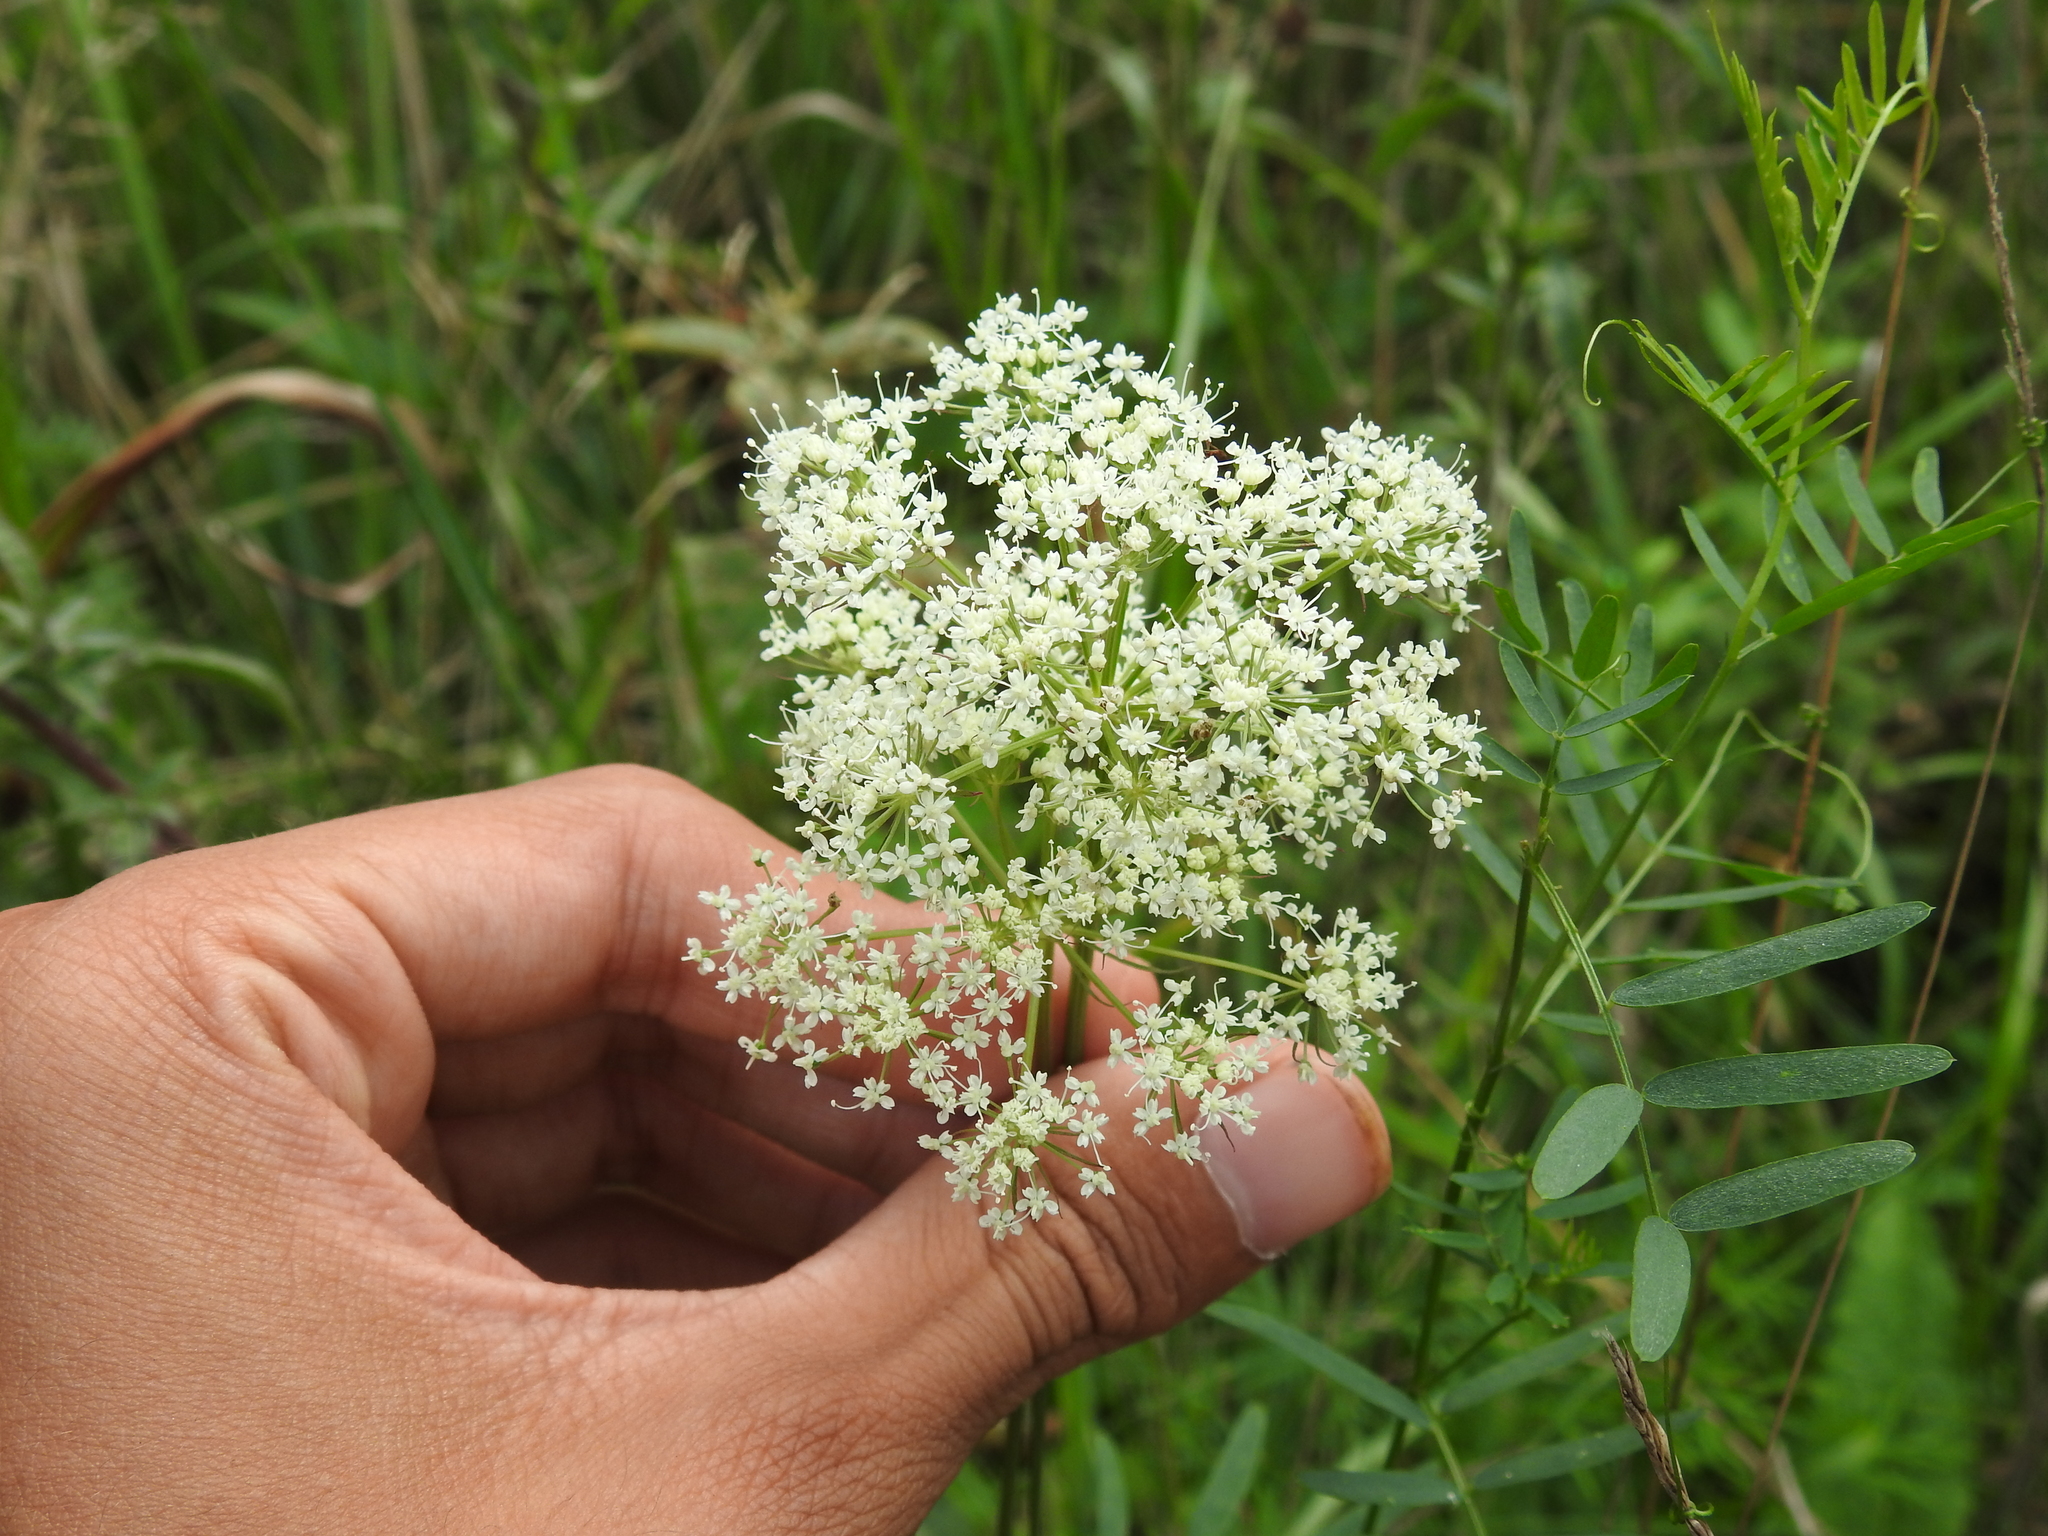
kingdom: Plantae
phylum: Tracheophyta
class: Magnoliopsida
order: Apiales
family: Apiaceae
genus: Kadenia
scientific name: Kadenia dubia
